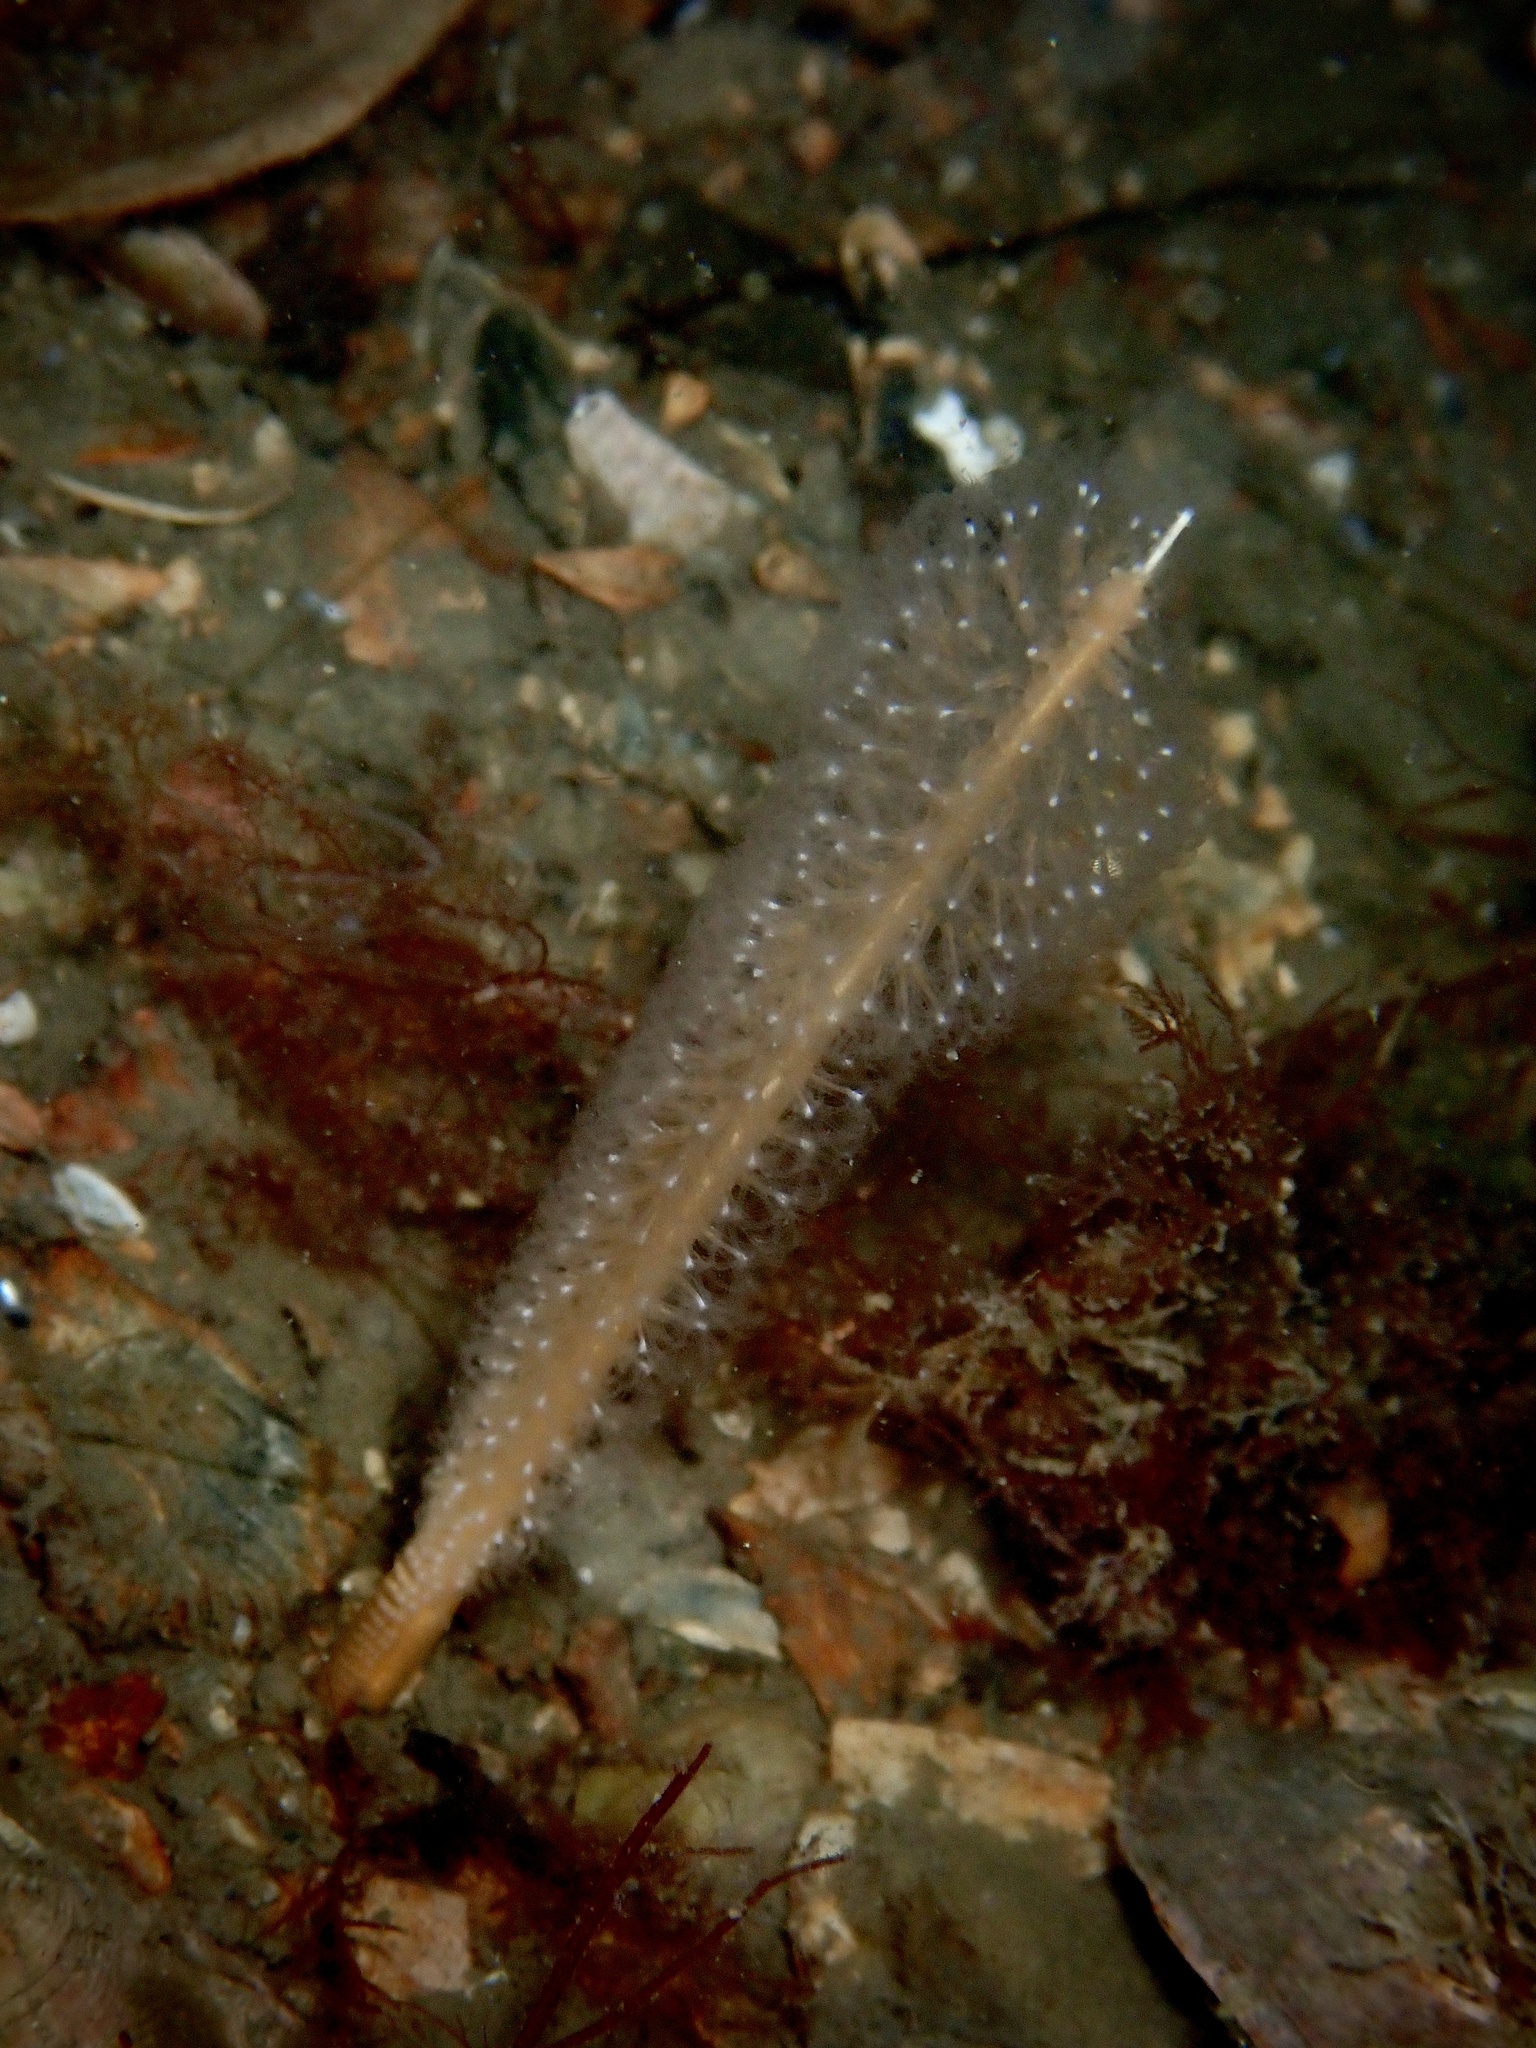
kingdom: Animalia
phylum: Cnidaria
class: Anthozoa
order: Scleralcyonacea
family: Virgulariidae
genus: Virgularia
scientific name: Virgularia mirabilis
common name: Slender sea pen
